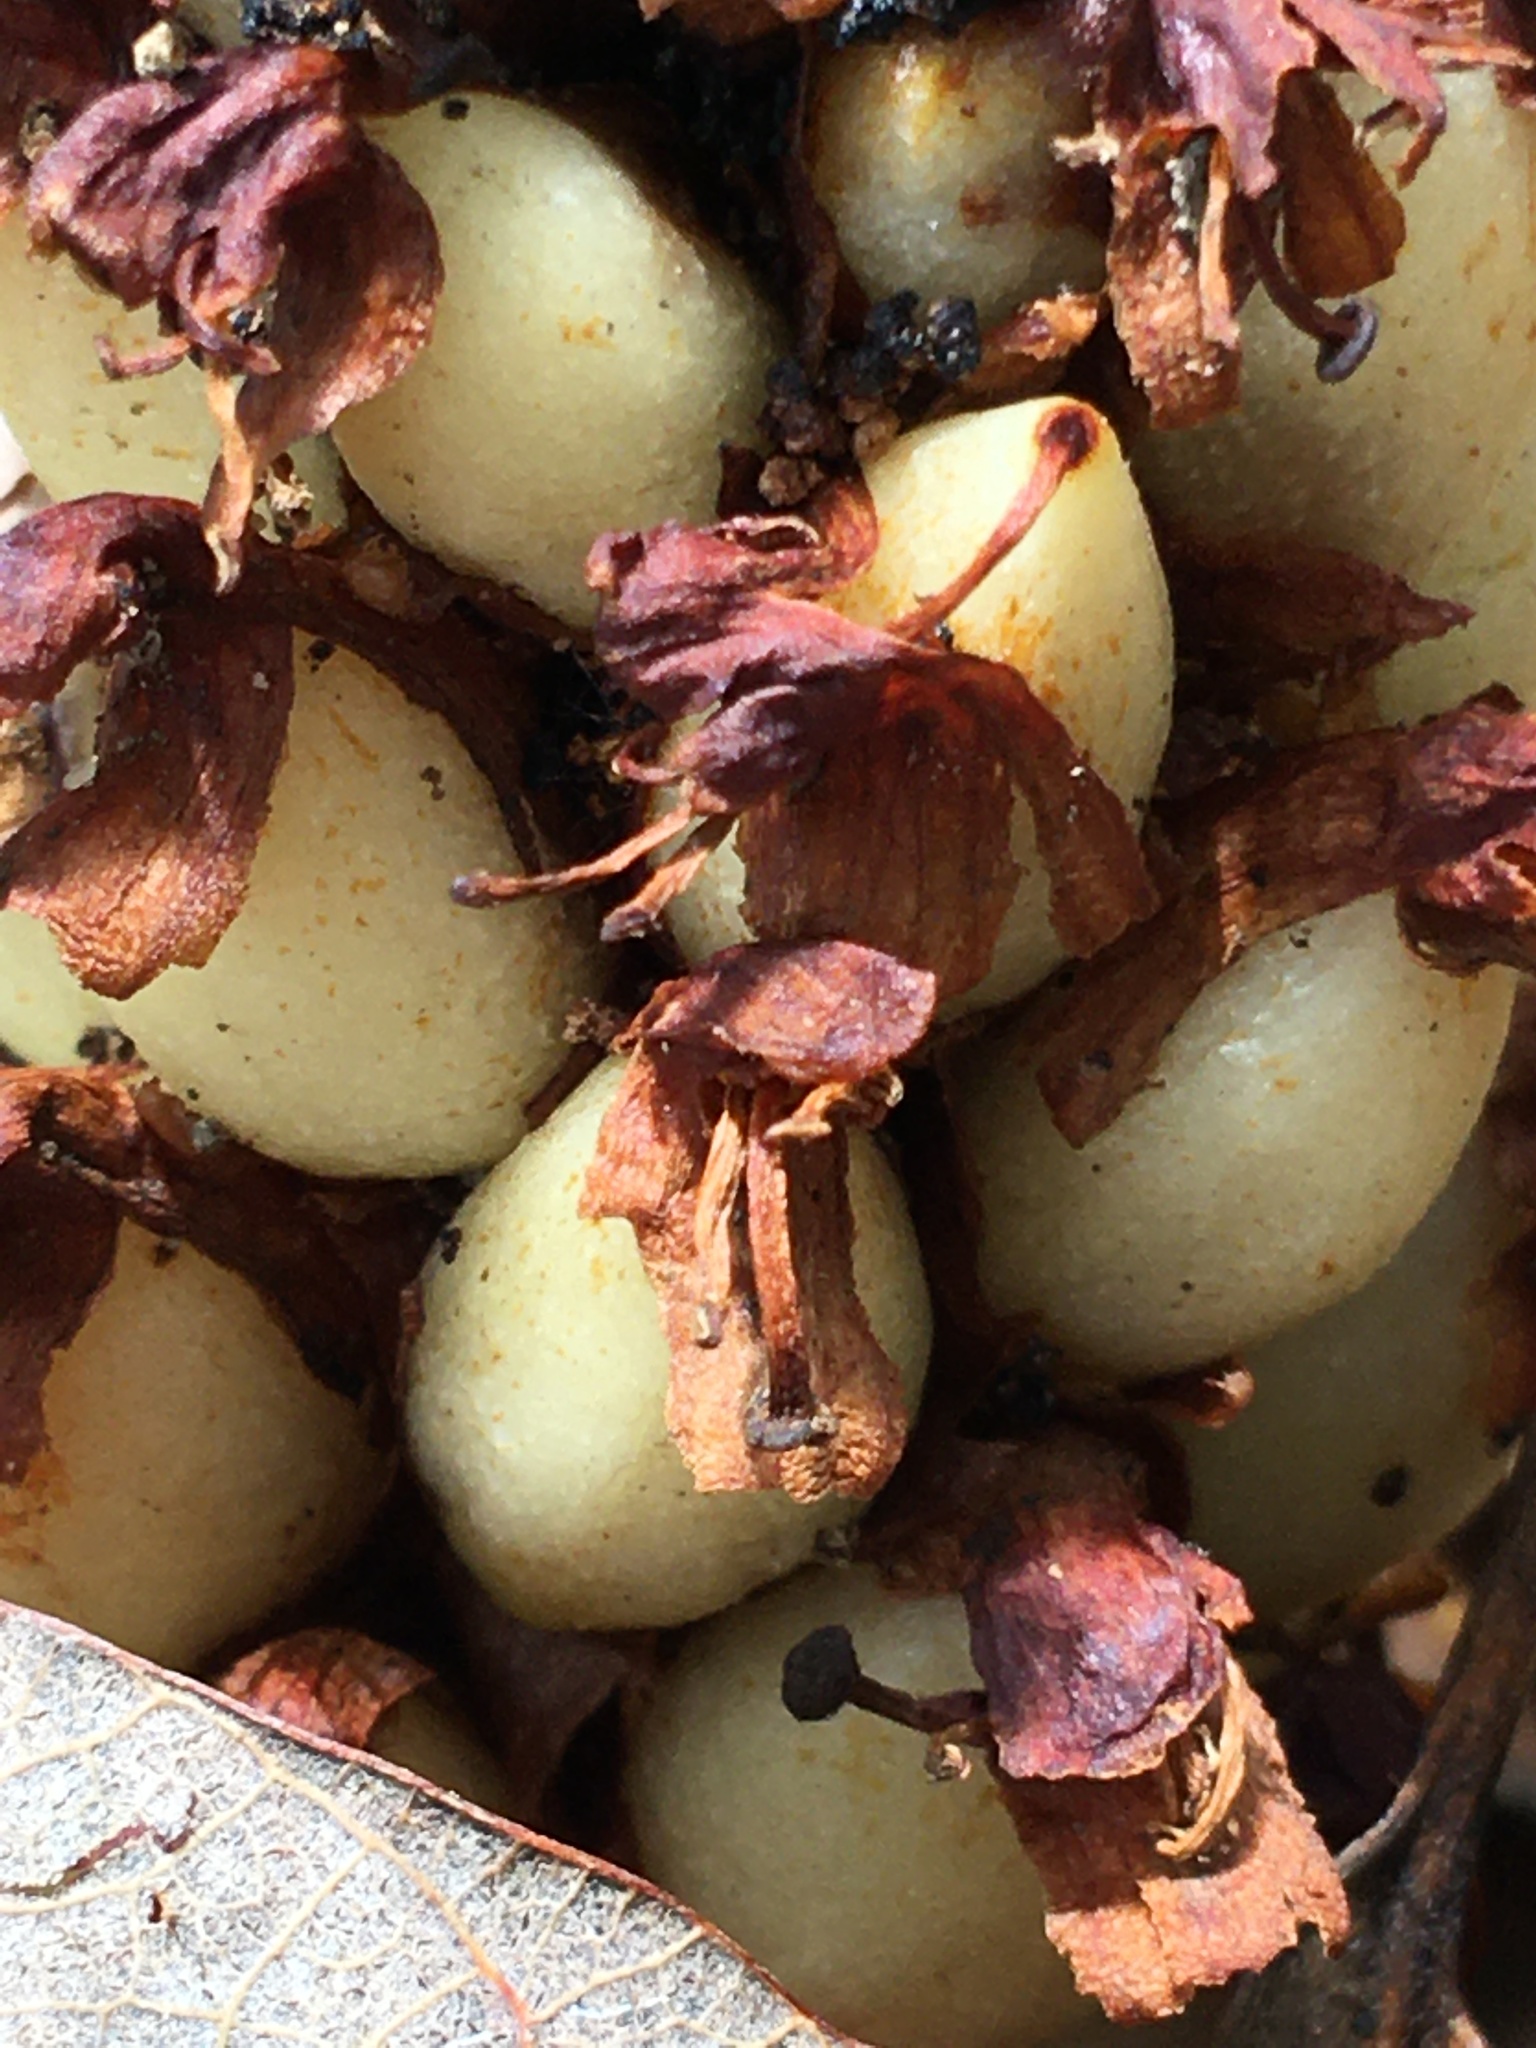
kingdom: Plantae
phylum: Tracheophyta
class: Magnoliopsida
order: Lamiales
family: Orobanchaceae
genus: Conopholis
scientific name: Conopholis americana
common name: American cancer-root
